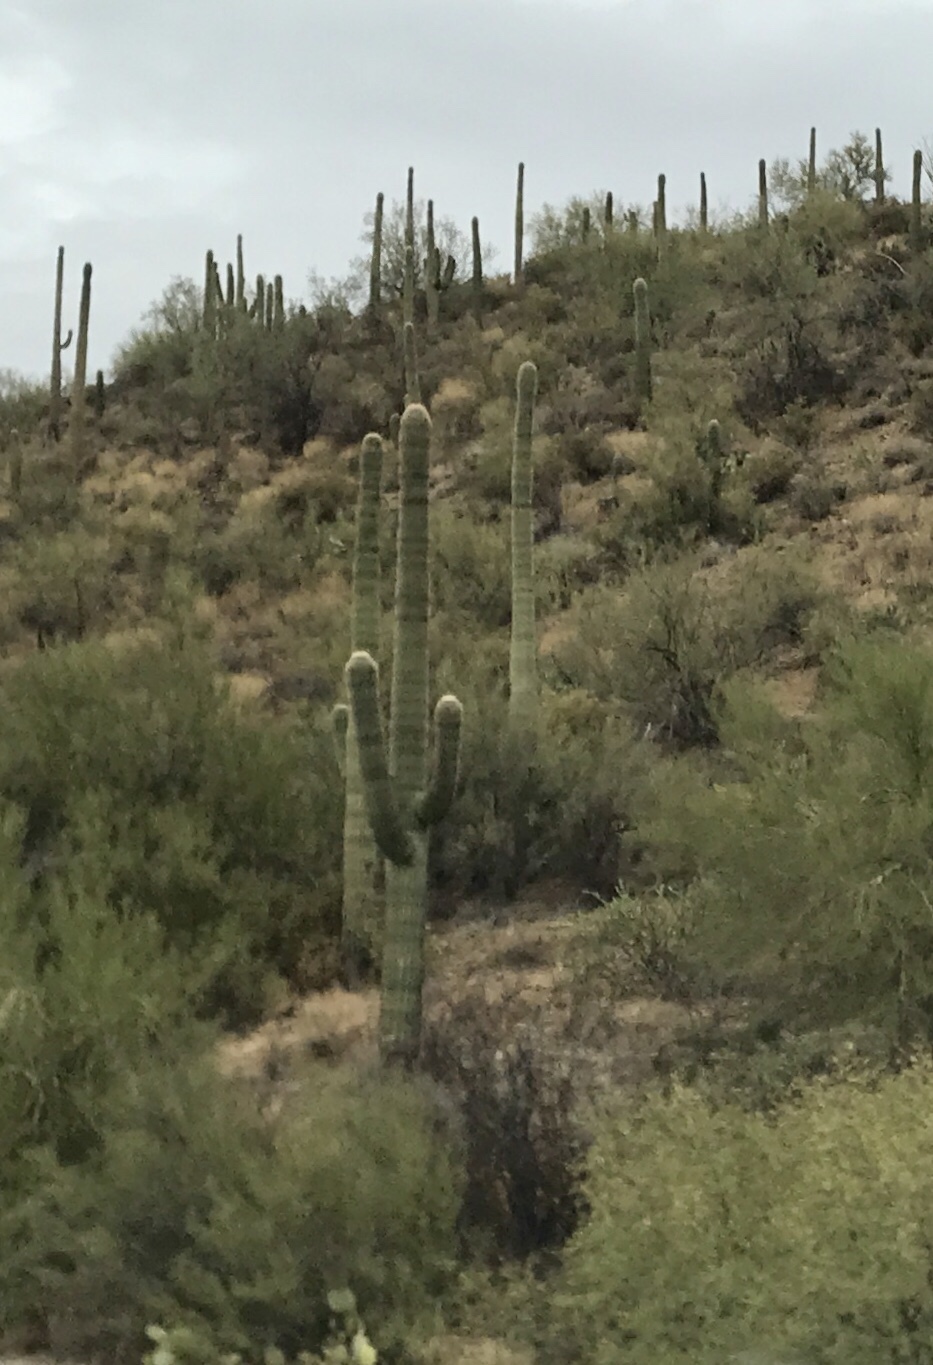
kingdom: Plantae
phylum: Tracheophyta
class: Magnoliopsida
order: Caryophyllales
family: Cactaceae
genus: Carnegiea
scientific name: Carnegiea gigantea
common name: Saguaro
